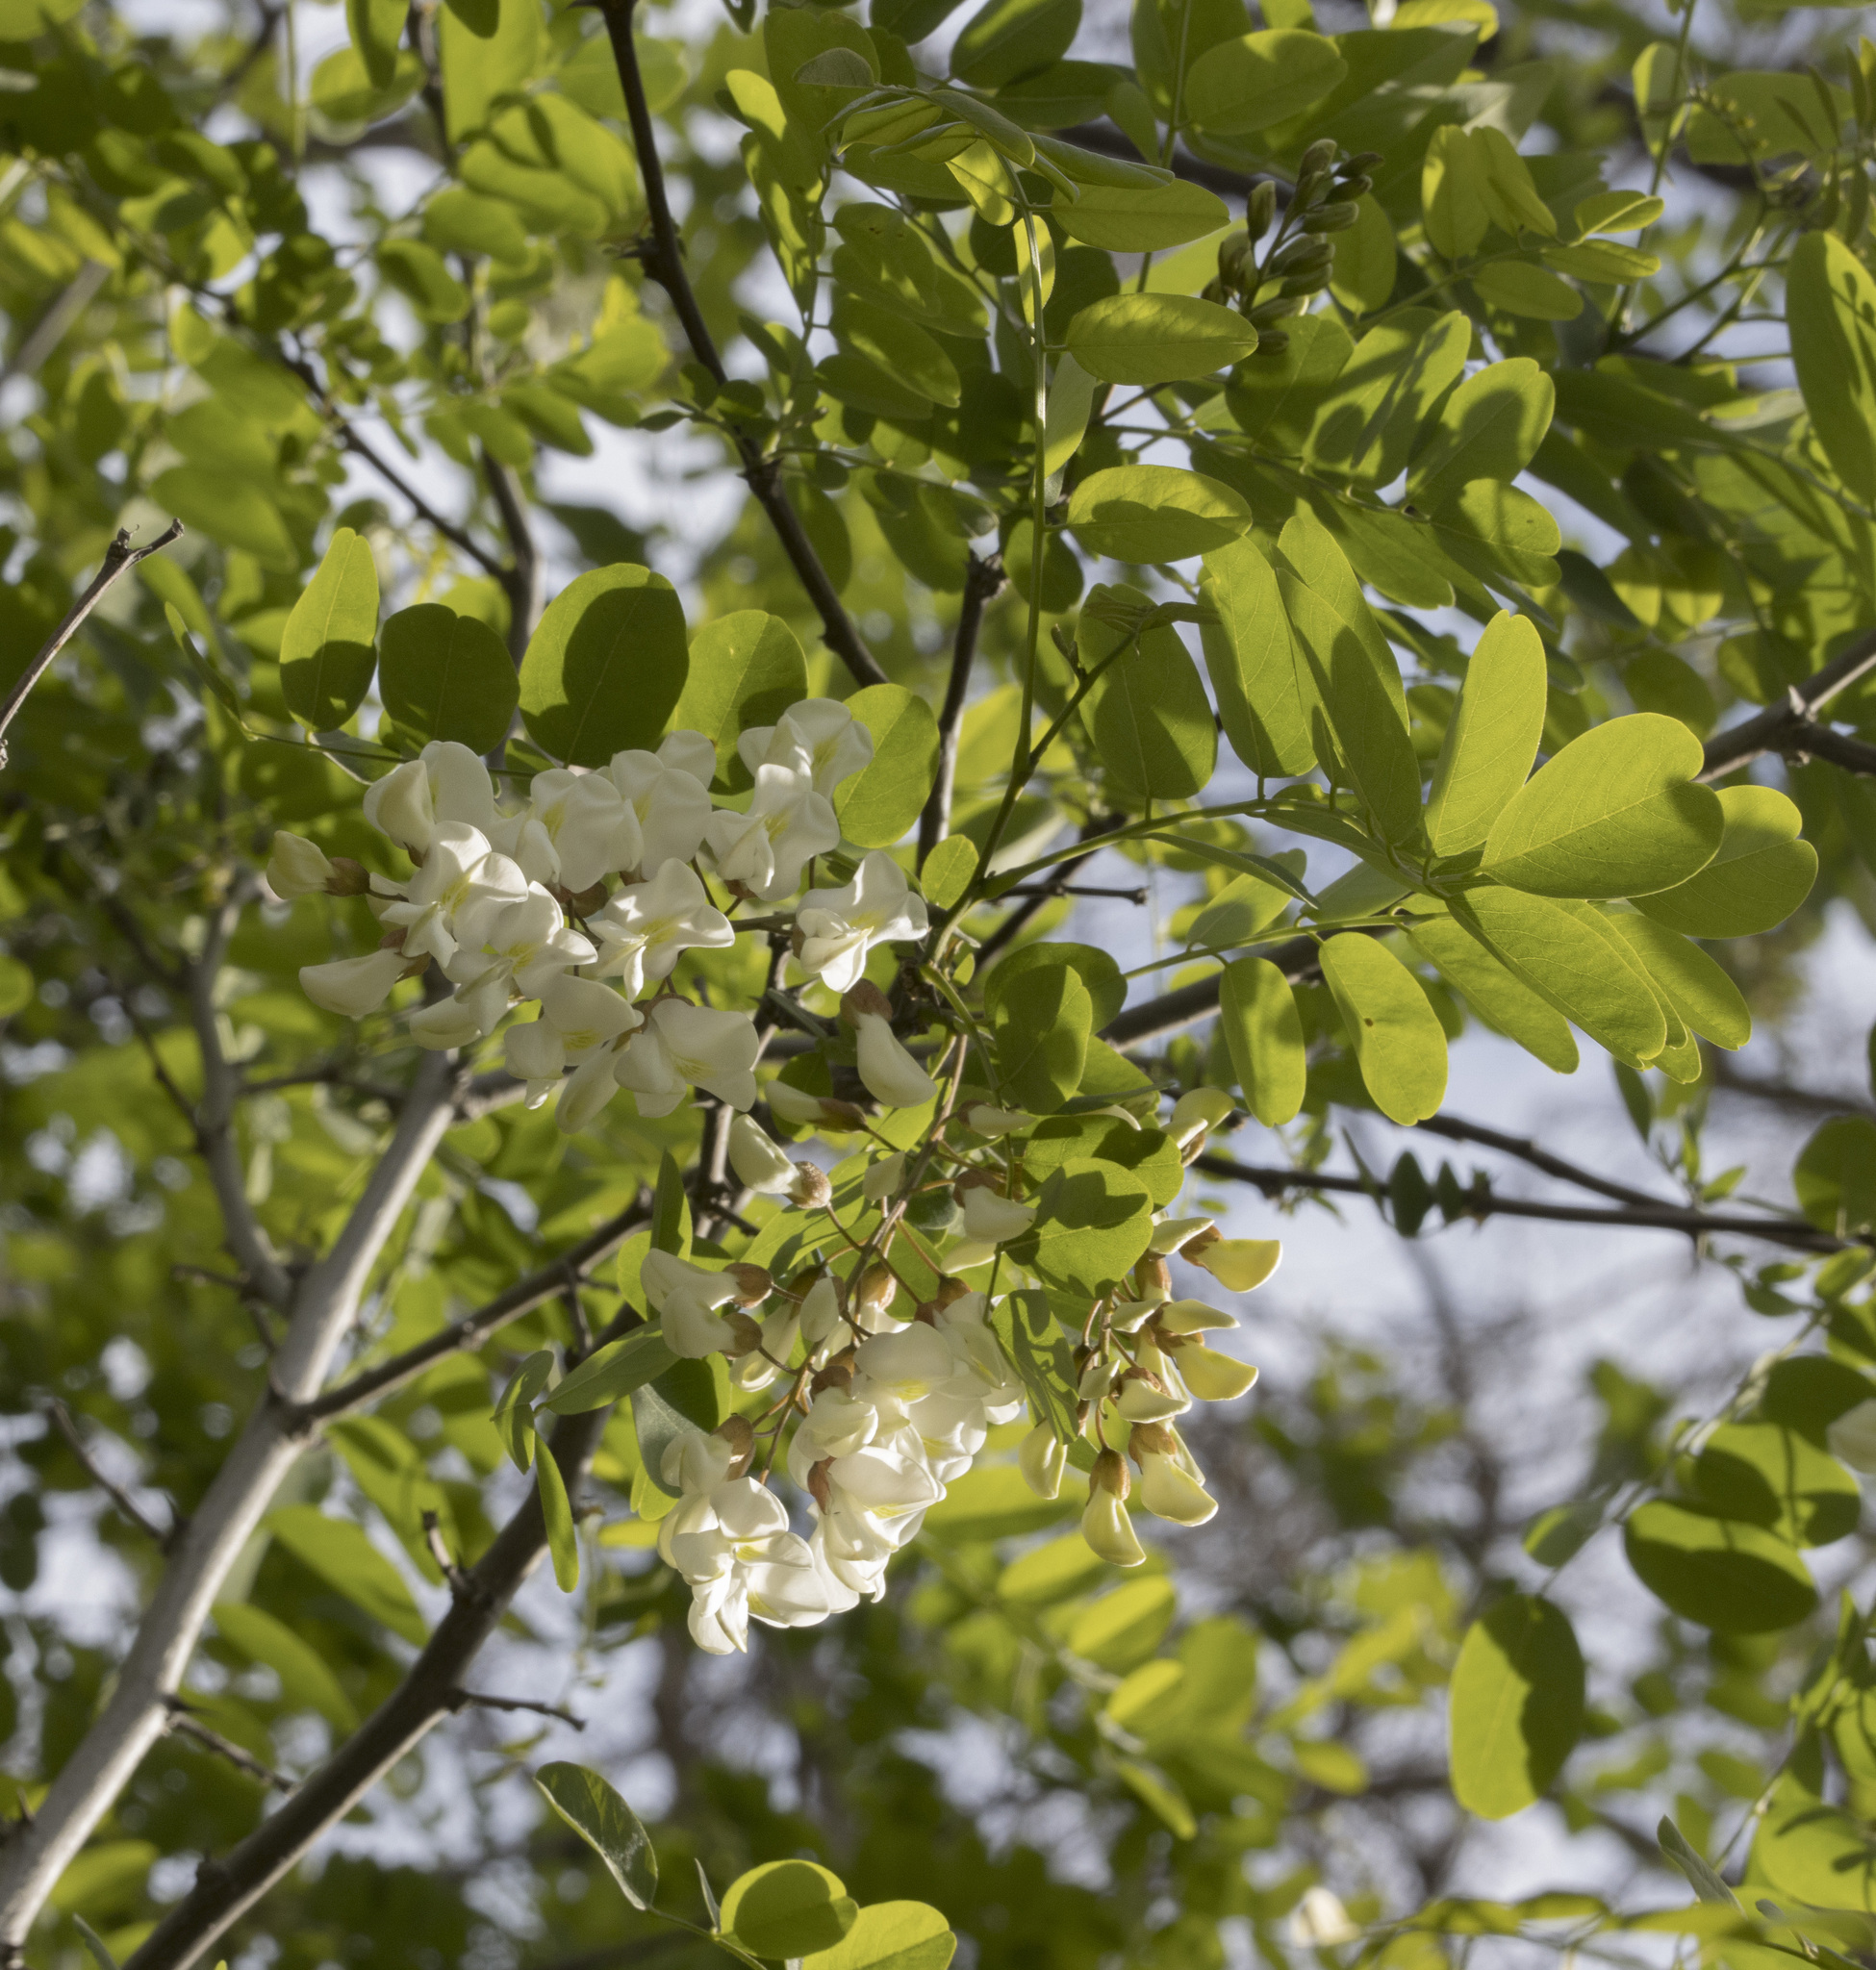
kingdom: Plantae
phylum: Tracheophyta
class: Magnoliopsida
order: Fabales
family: Fabaceae
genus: Robinia
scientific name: Robinia pseudoacacia
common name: Black locust
